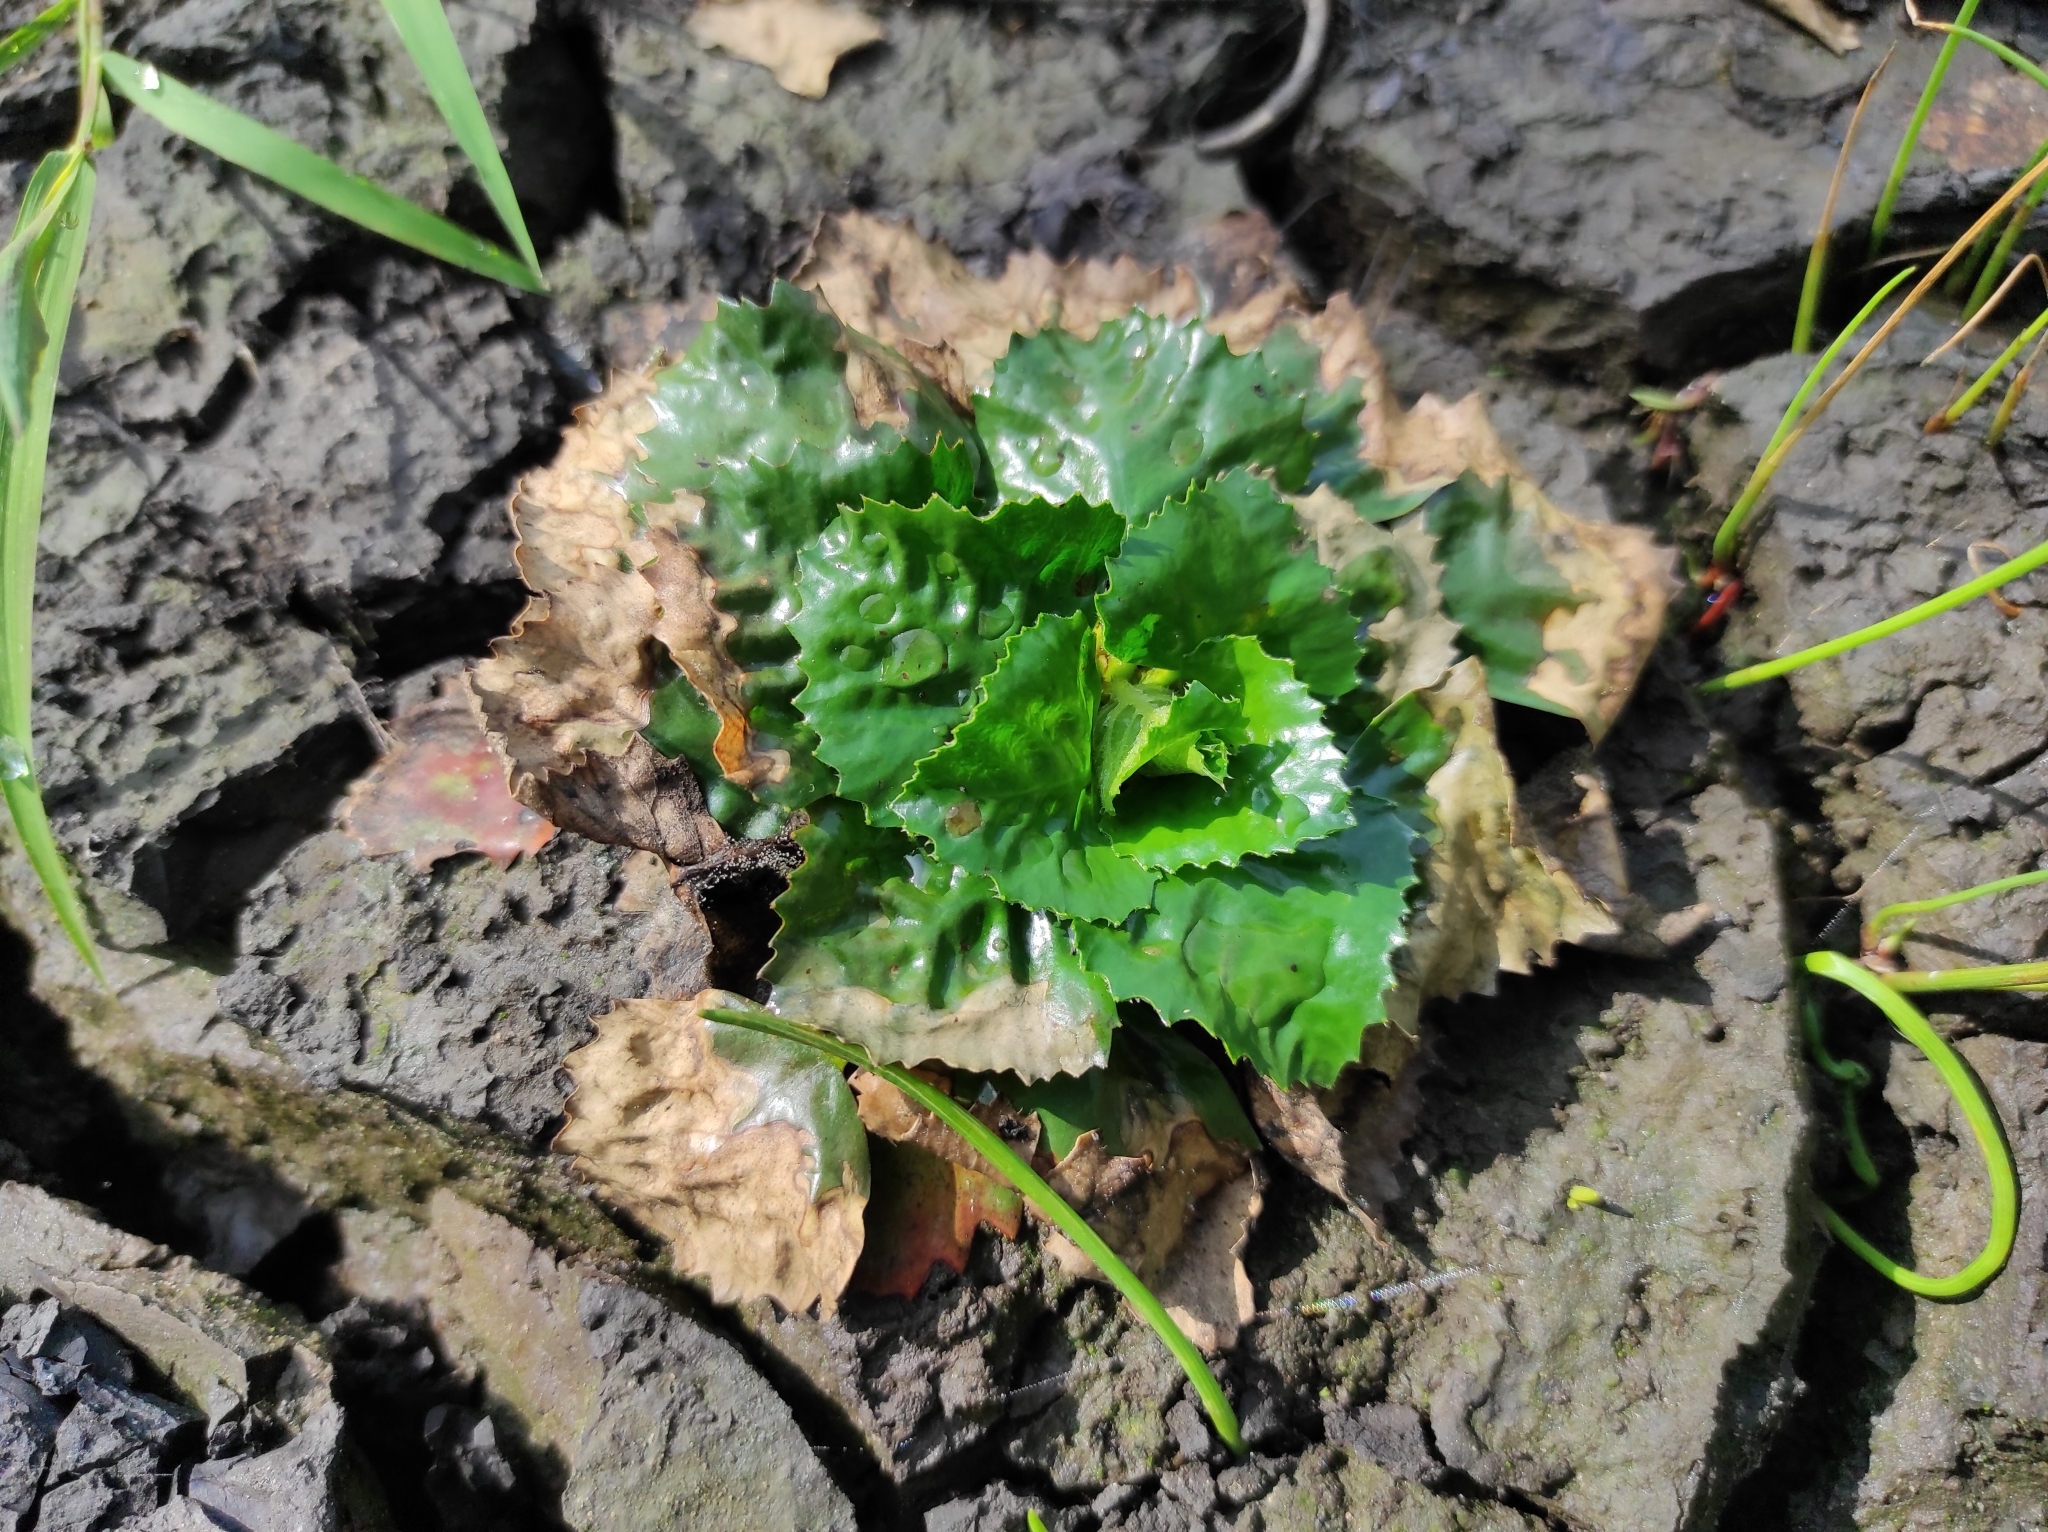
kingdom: Plantae
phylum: Tracheophyta
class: Magnoliopsida
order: Myrtales
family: Lythraceae
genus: Trapa
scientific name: Trapa natans
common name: Water chestnut
